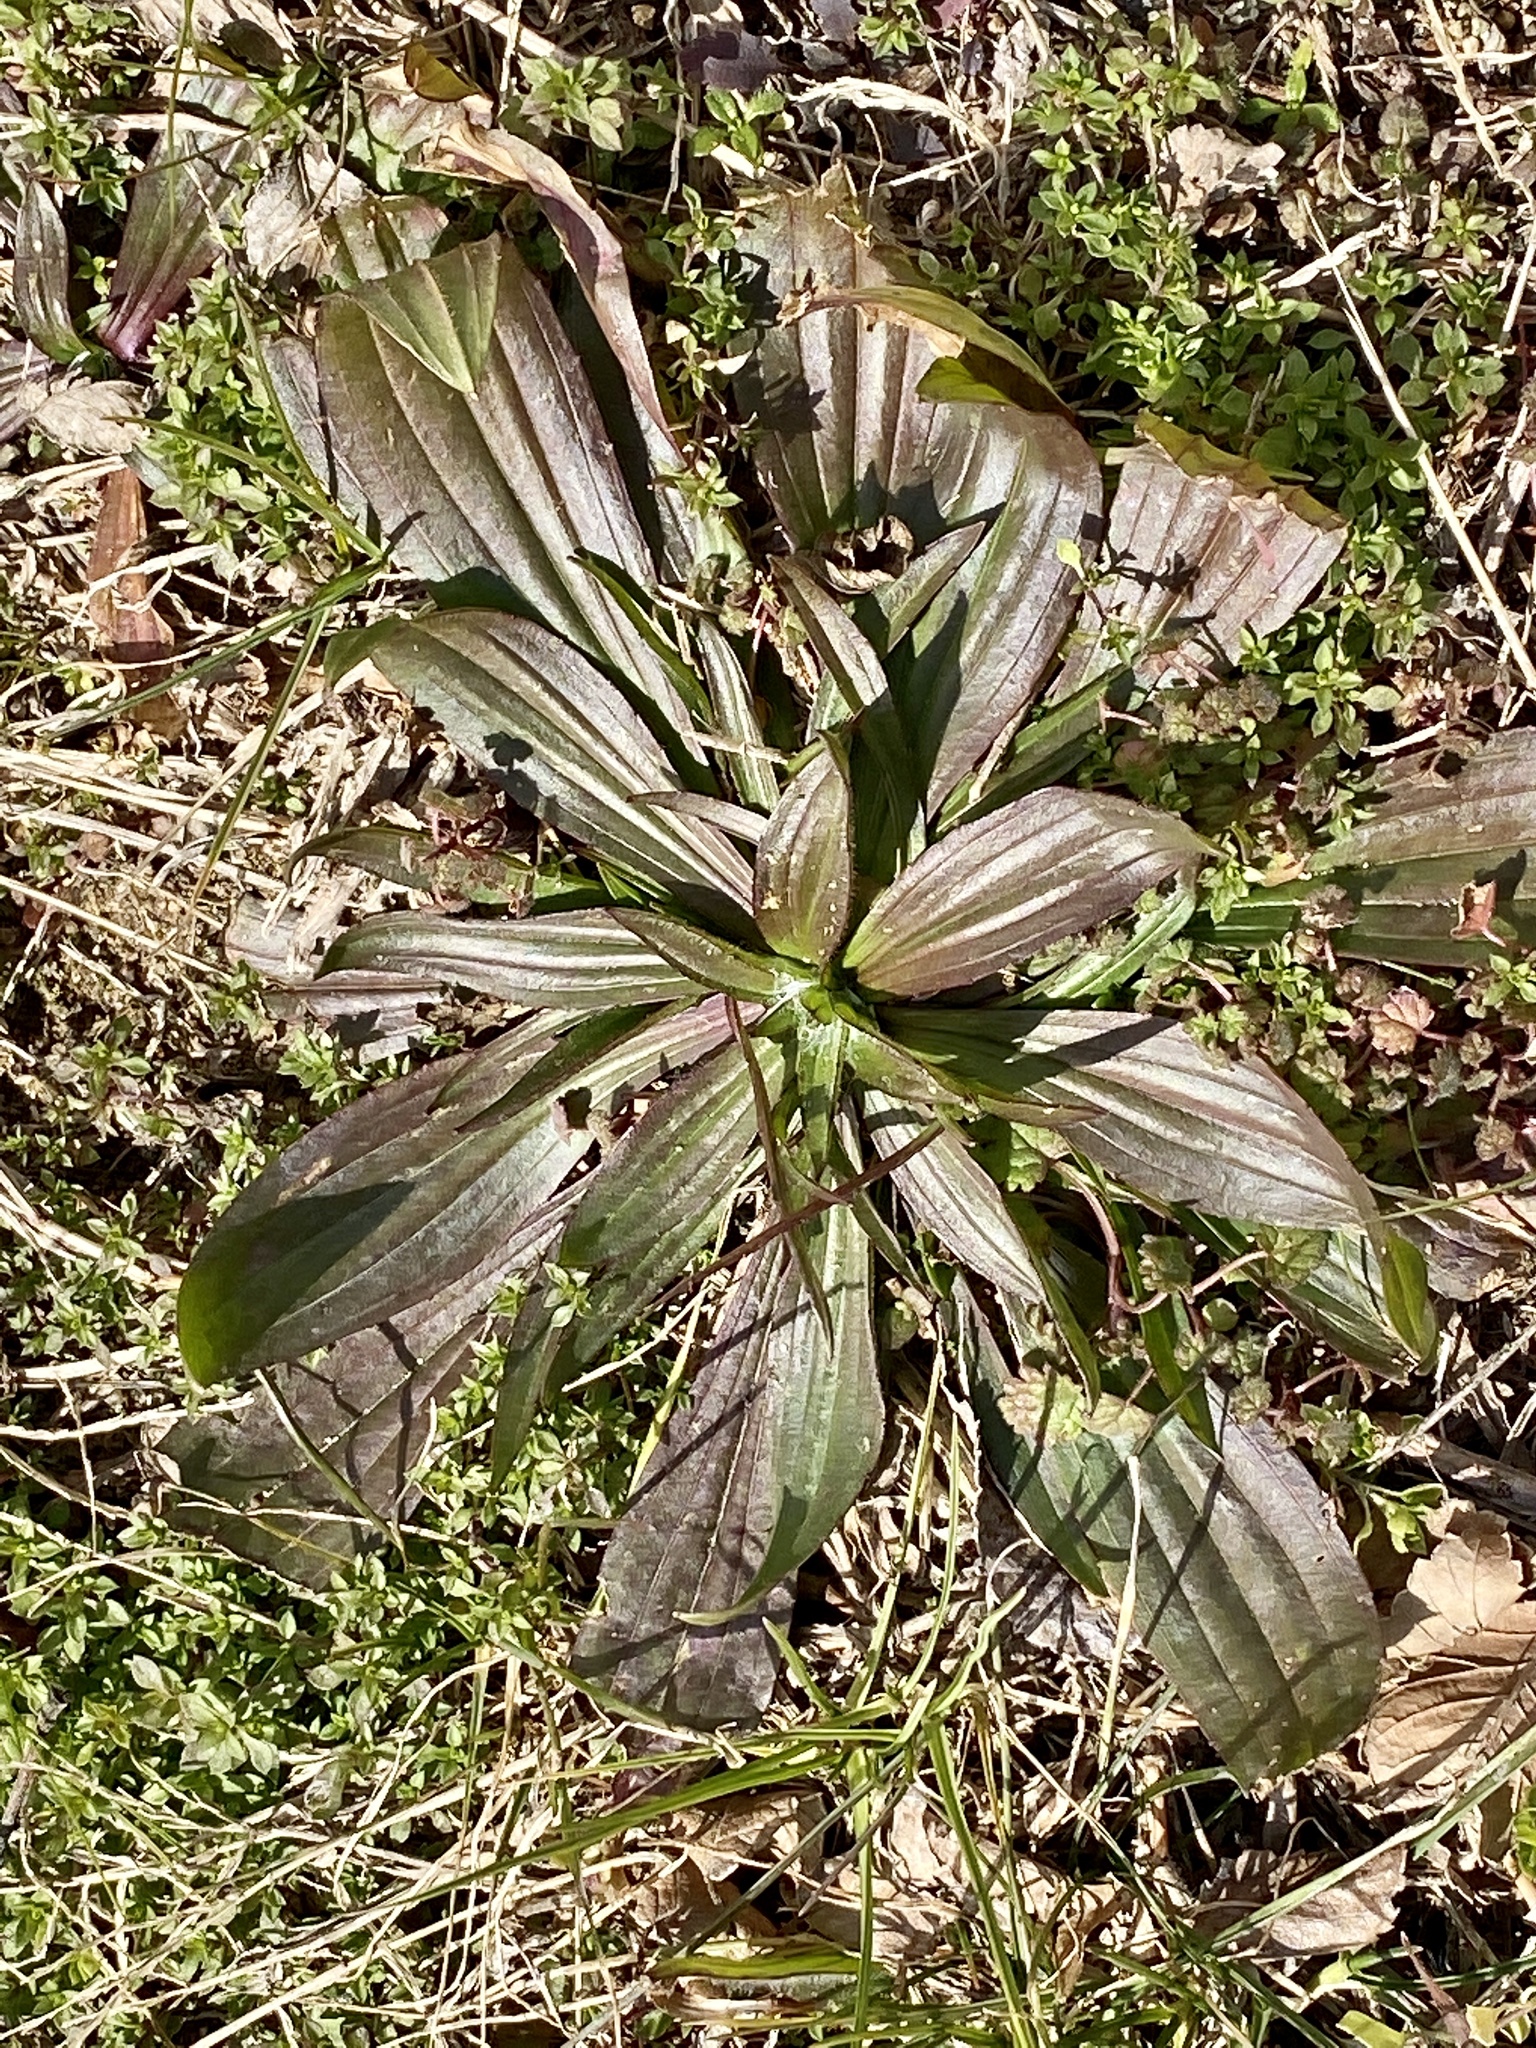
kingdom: Plantae
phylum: Tracheophyta
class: Magnoliopsida
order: Lamiales
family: Plantaginaceae
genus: Plantago
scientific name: Plantago lanceolata
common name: Ribwort plantain
